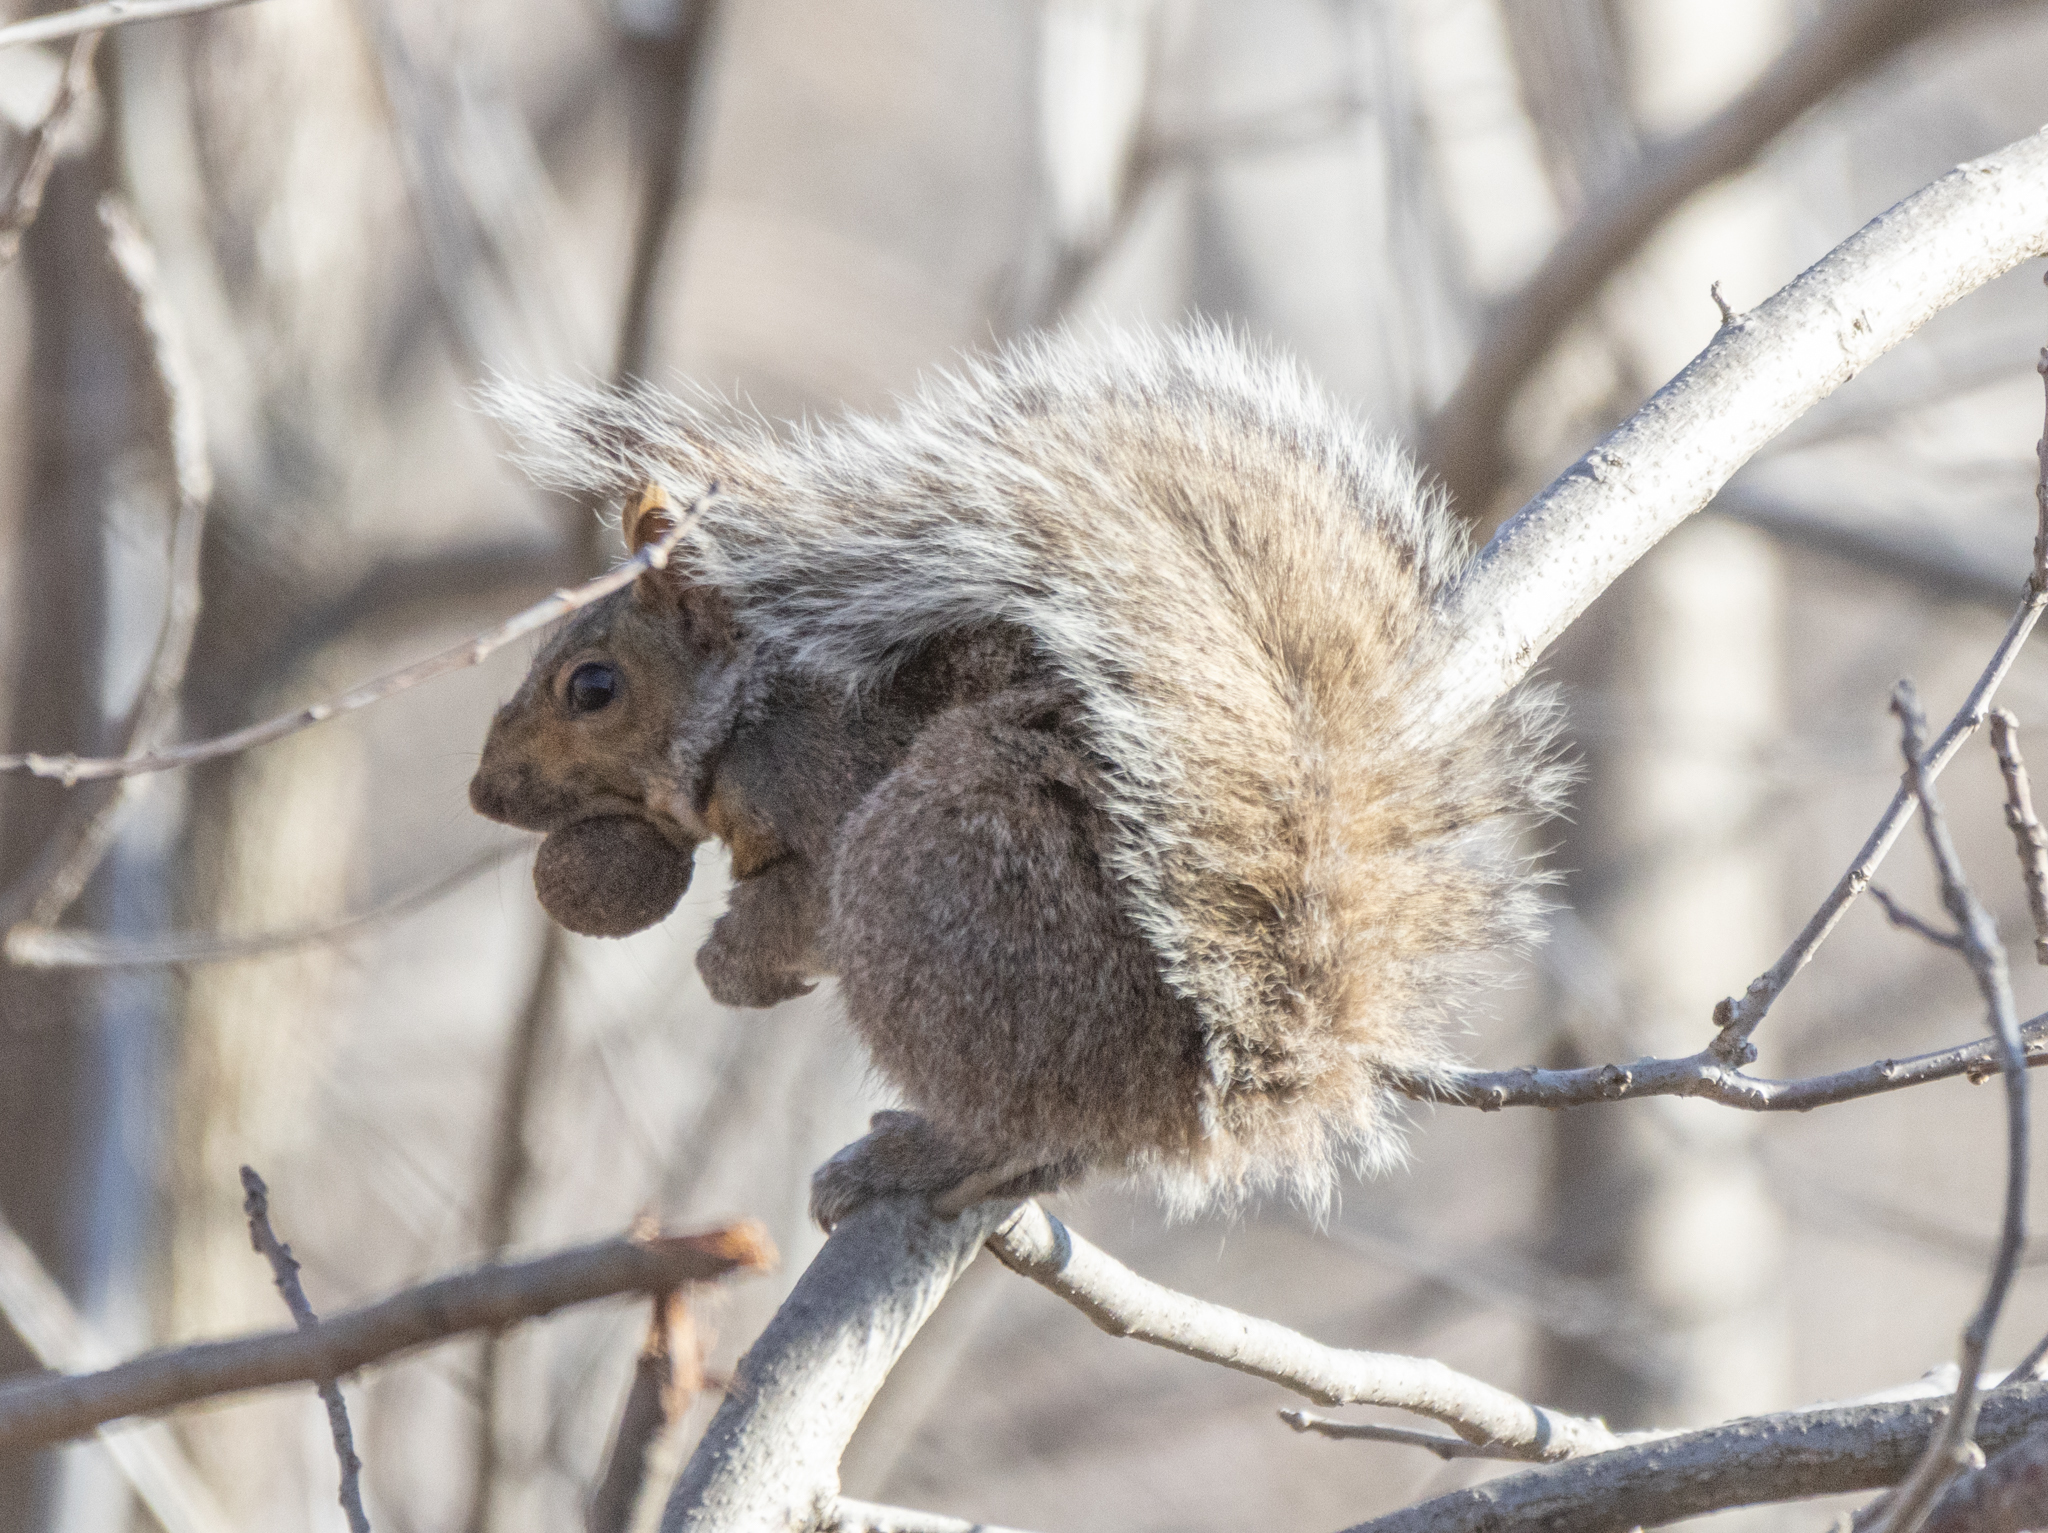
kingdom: Animalia
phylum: Chordata
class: Mammalia
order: Rodentia
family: Sciuridae
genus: Sciurus
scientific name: Sciurus carolinensis
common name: Eastern gray squirrel
